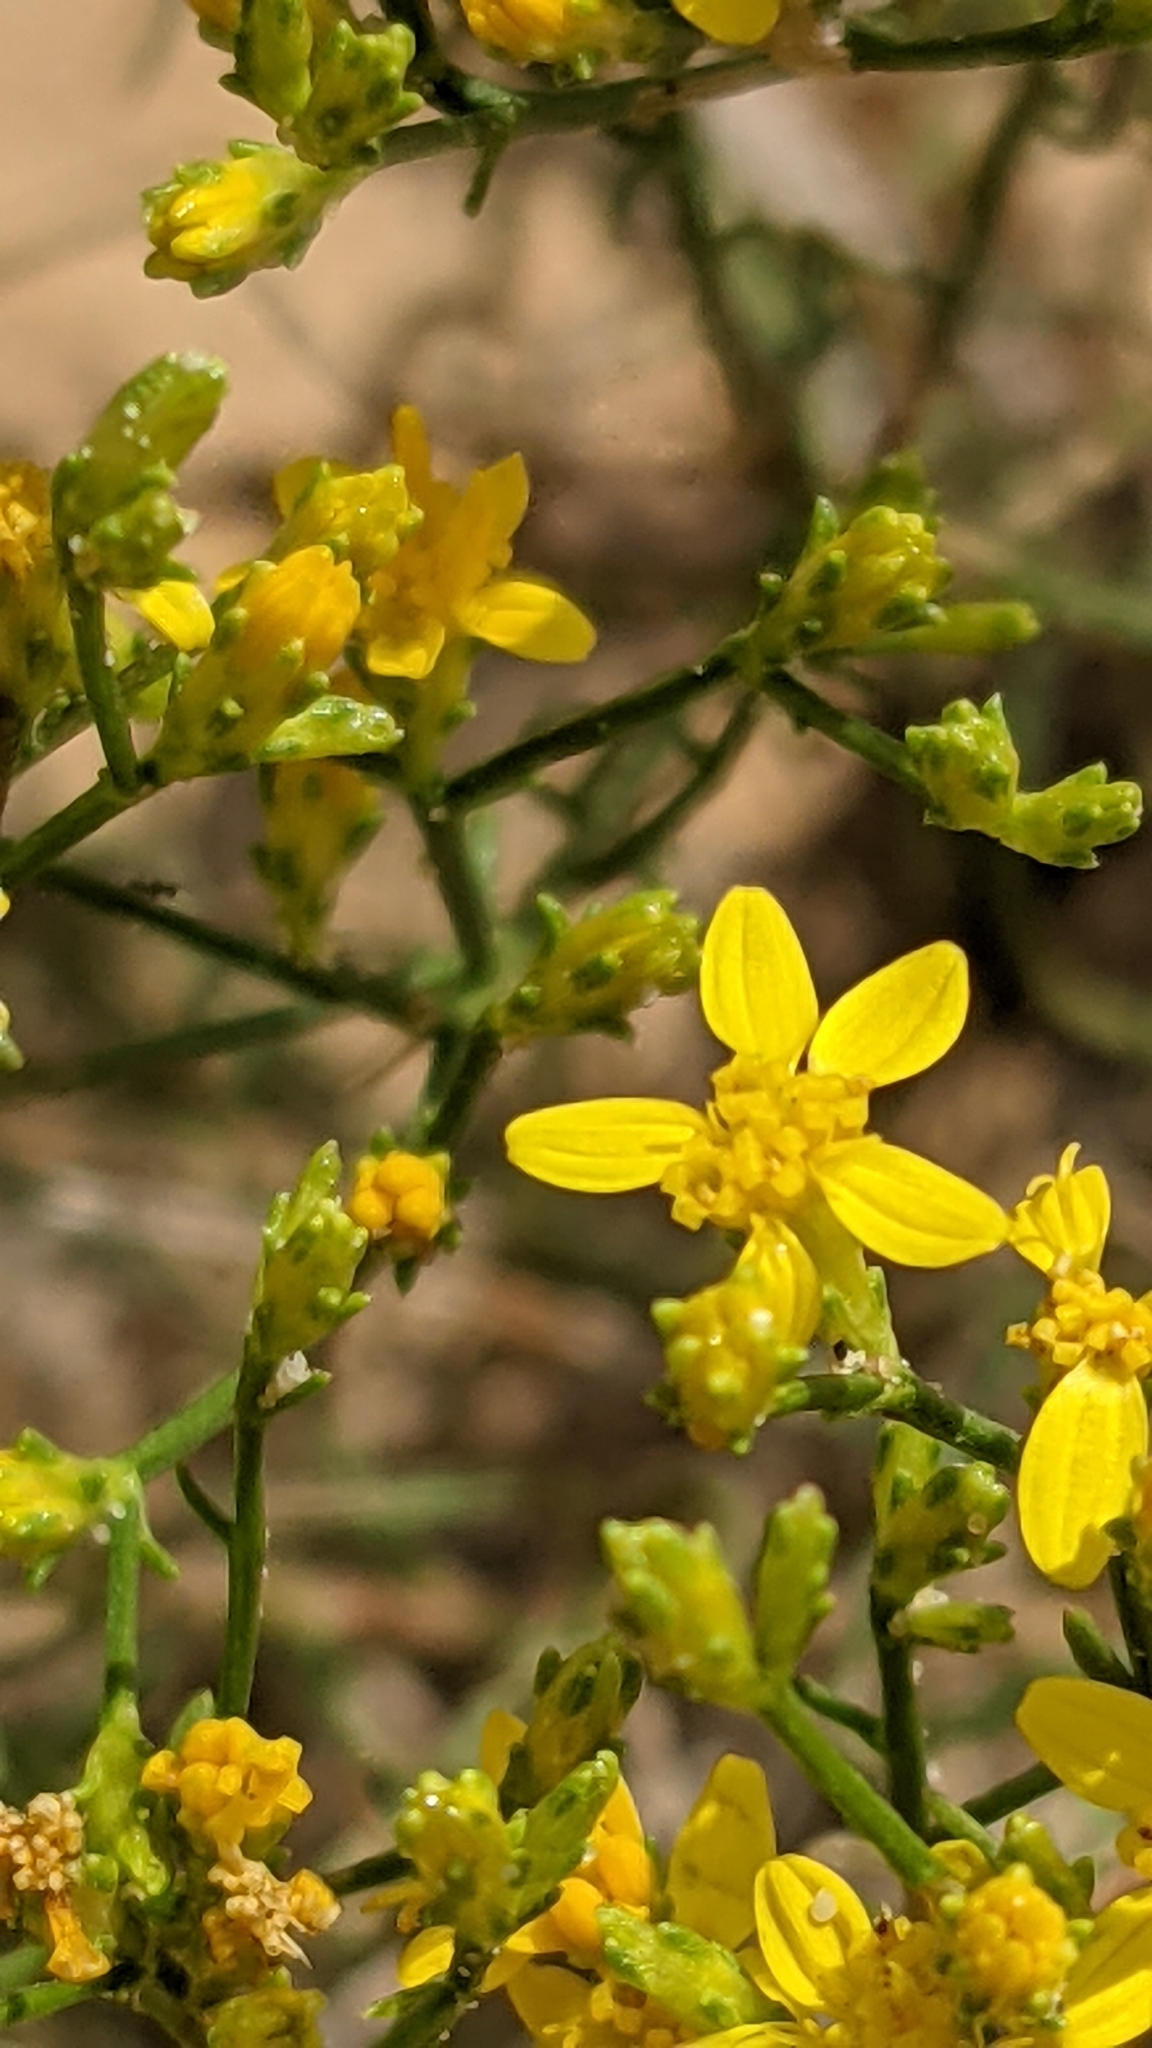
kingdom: Plantae
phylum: Tracheophyta
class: Magnoliopsida
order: Asterales
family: Asteraceae
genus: Gutierrezia
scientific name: Gutierrezia sarothrae
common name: Broom snakeweed
